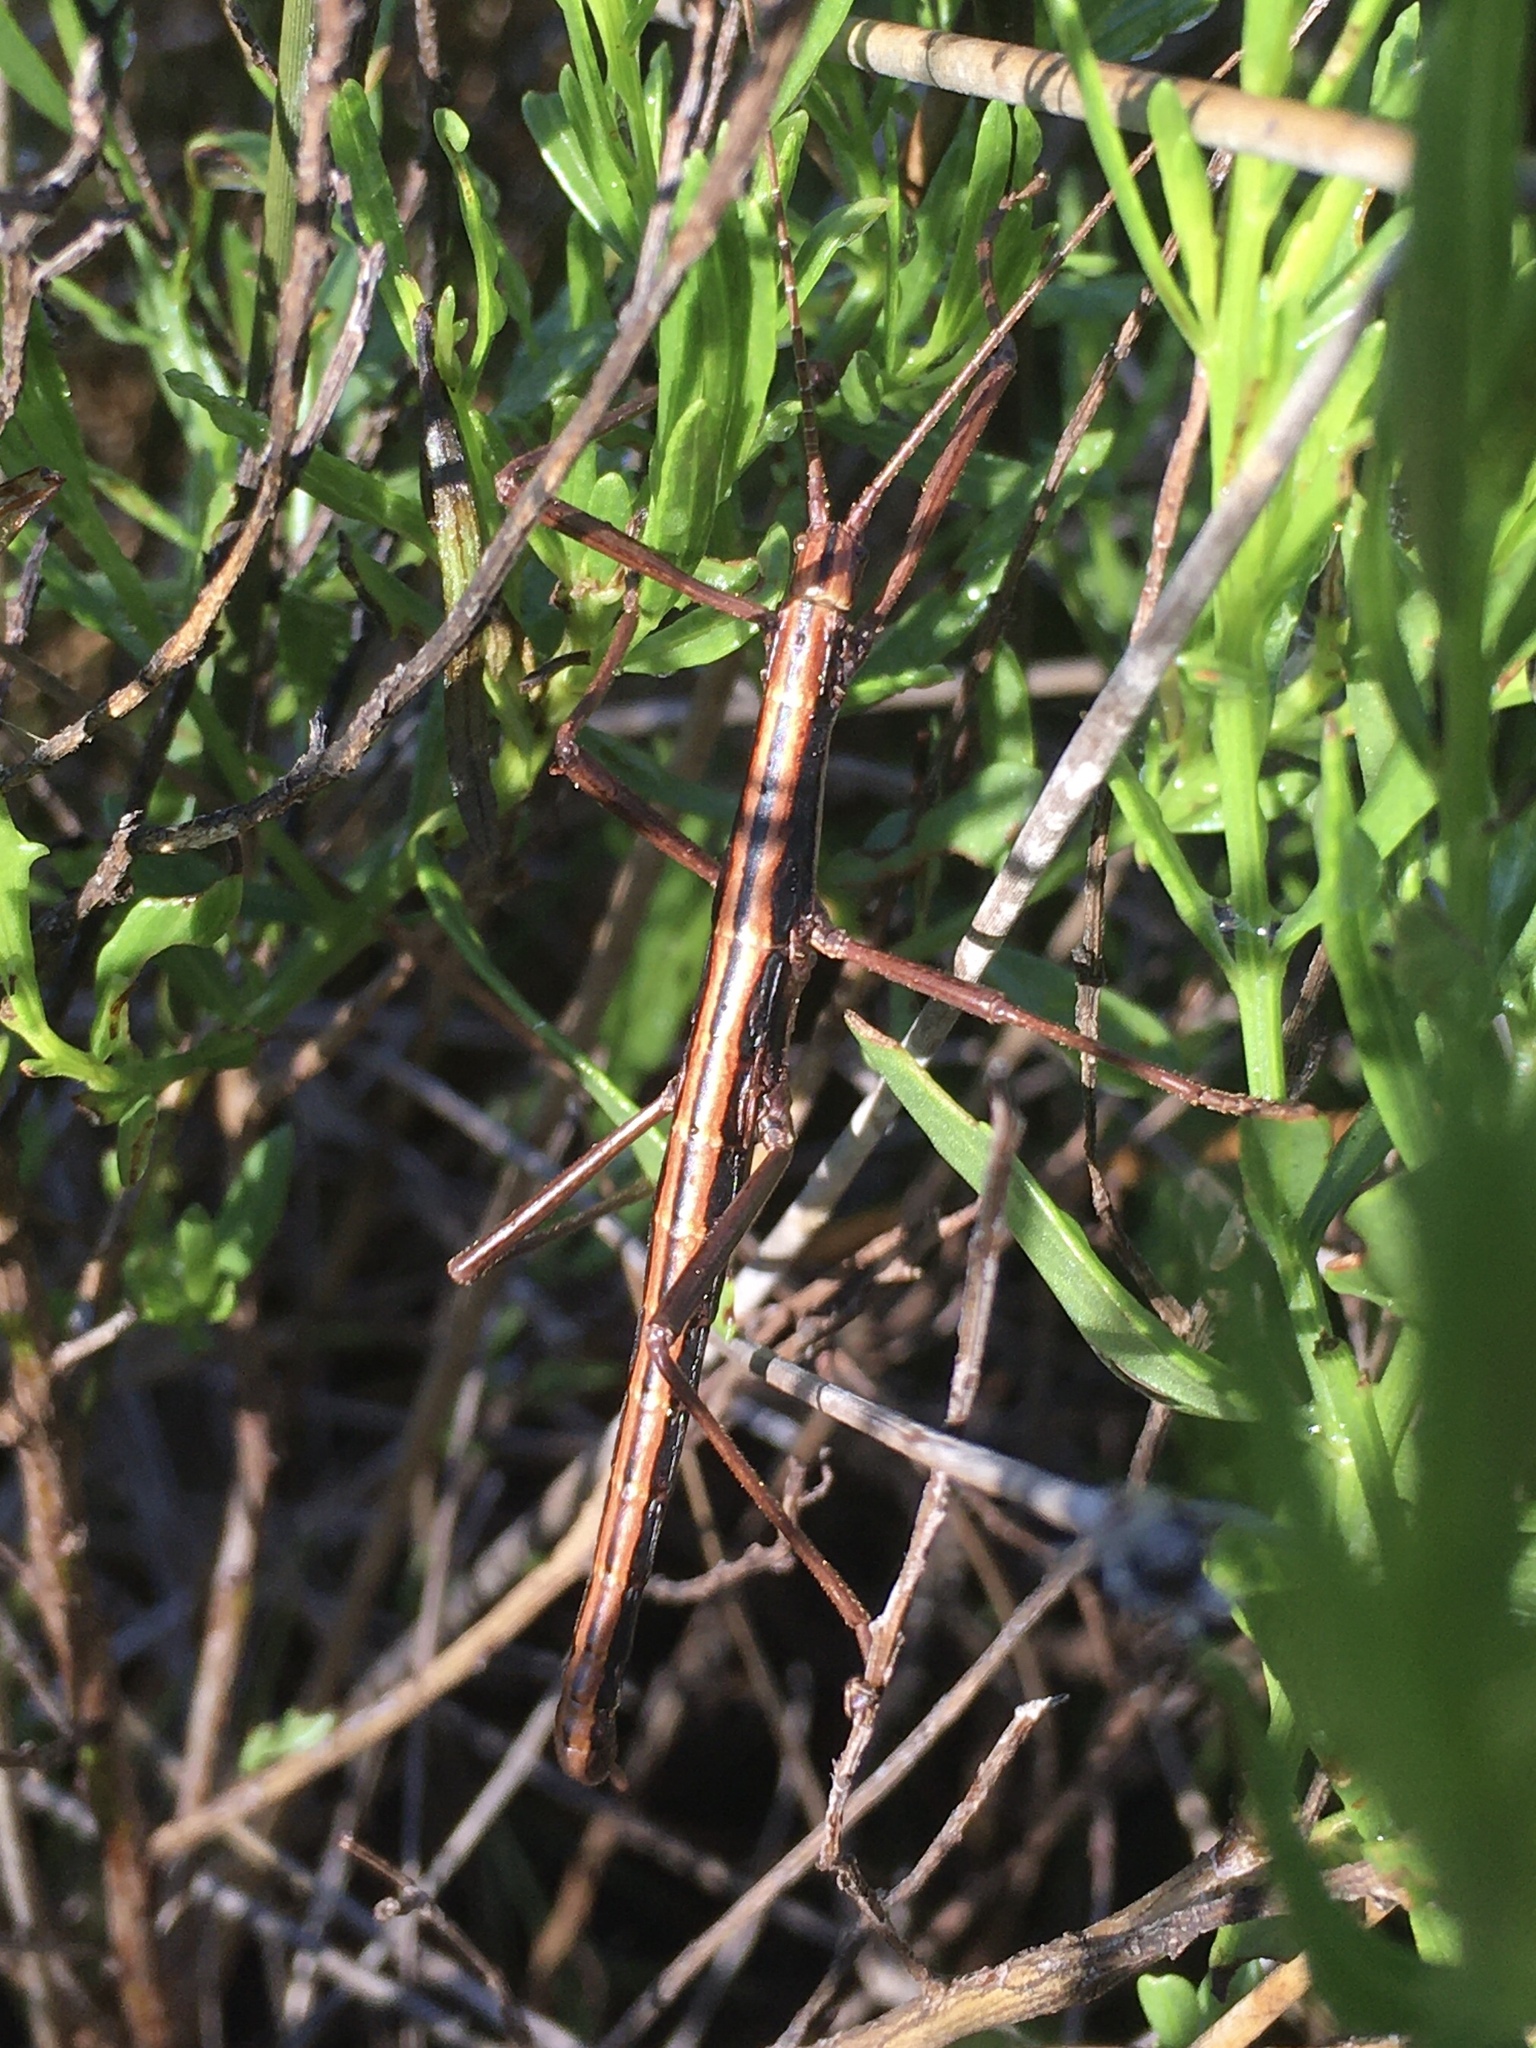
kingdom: Animalia
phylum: Arthropoda
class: Insecta
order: Phasmida
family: Pseudophasmatidae
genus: Anisomorpha
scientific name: Anisomorpha buprestoides
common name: Florida stick insect
